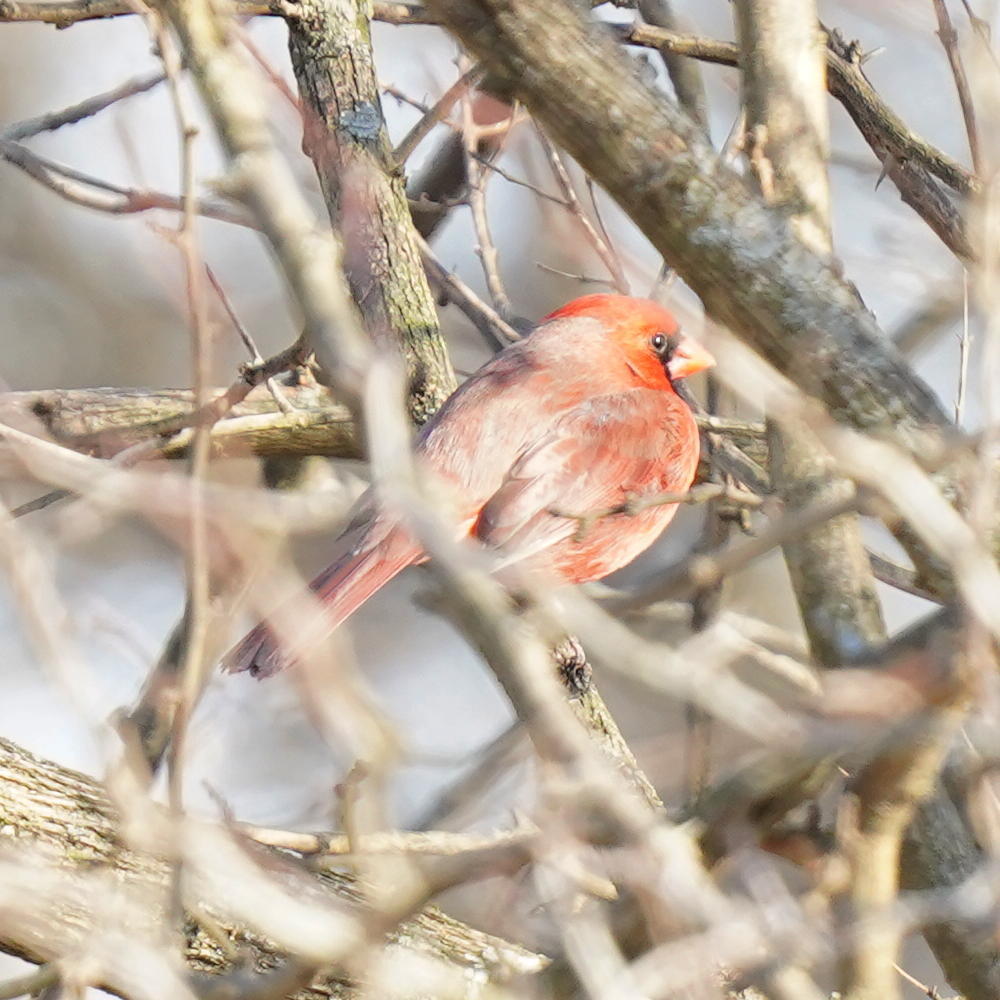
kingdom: Animalia
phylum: Chordata
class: Aves
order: Passeriformes
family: Cardinalidae
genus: Cardinalis
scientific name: Cardinalis cardinalis
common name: Northern cardinal
